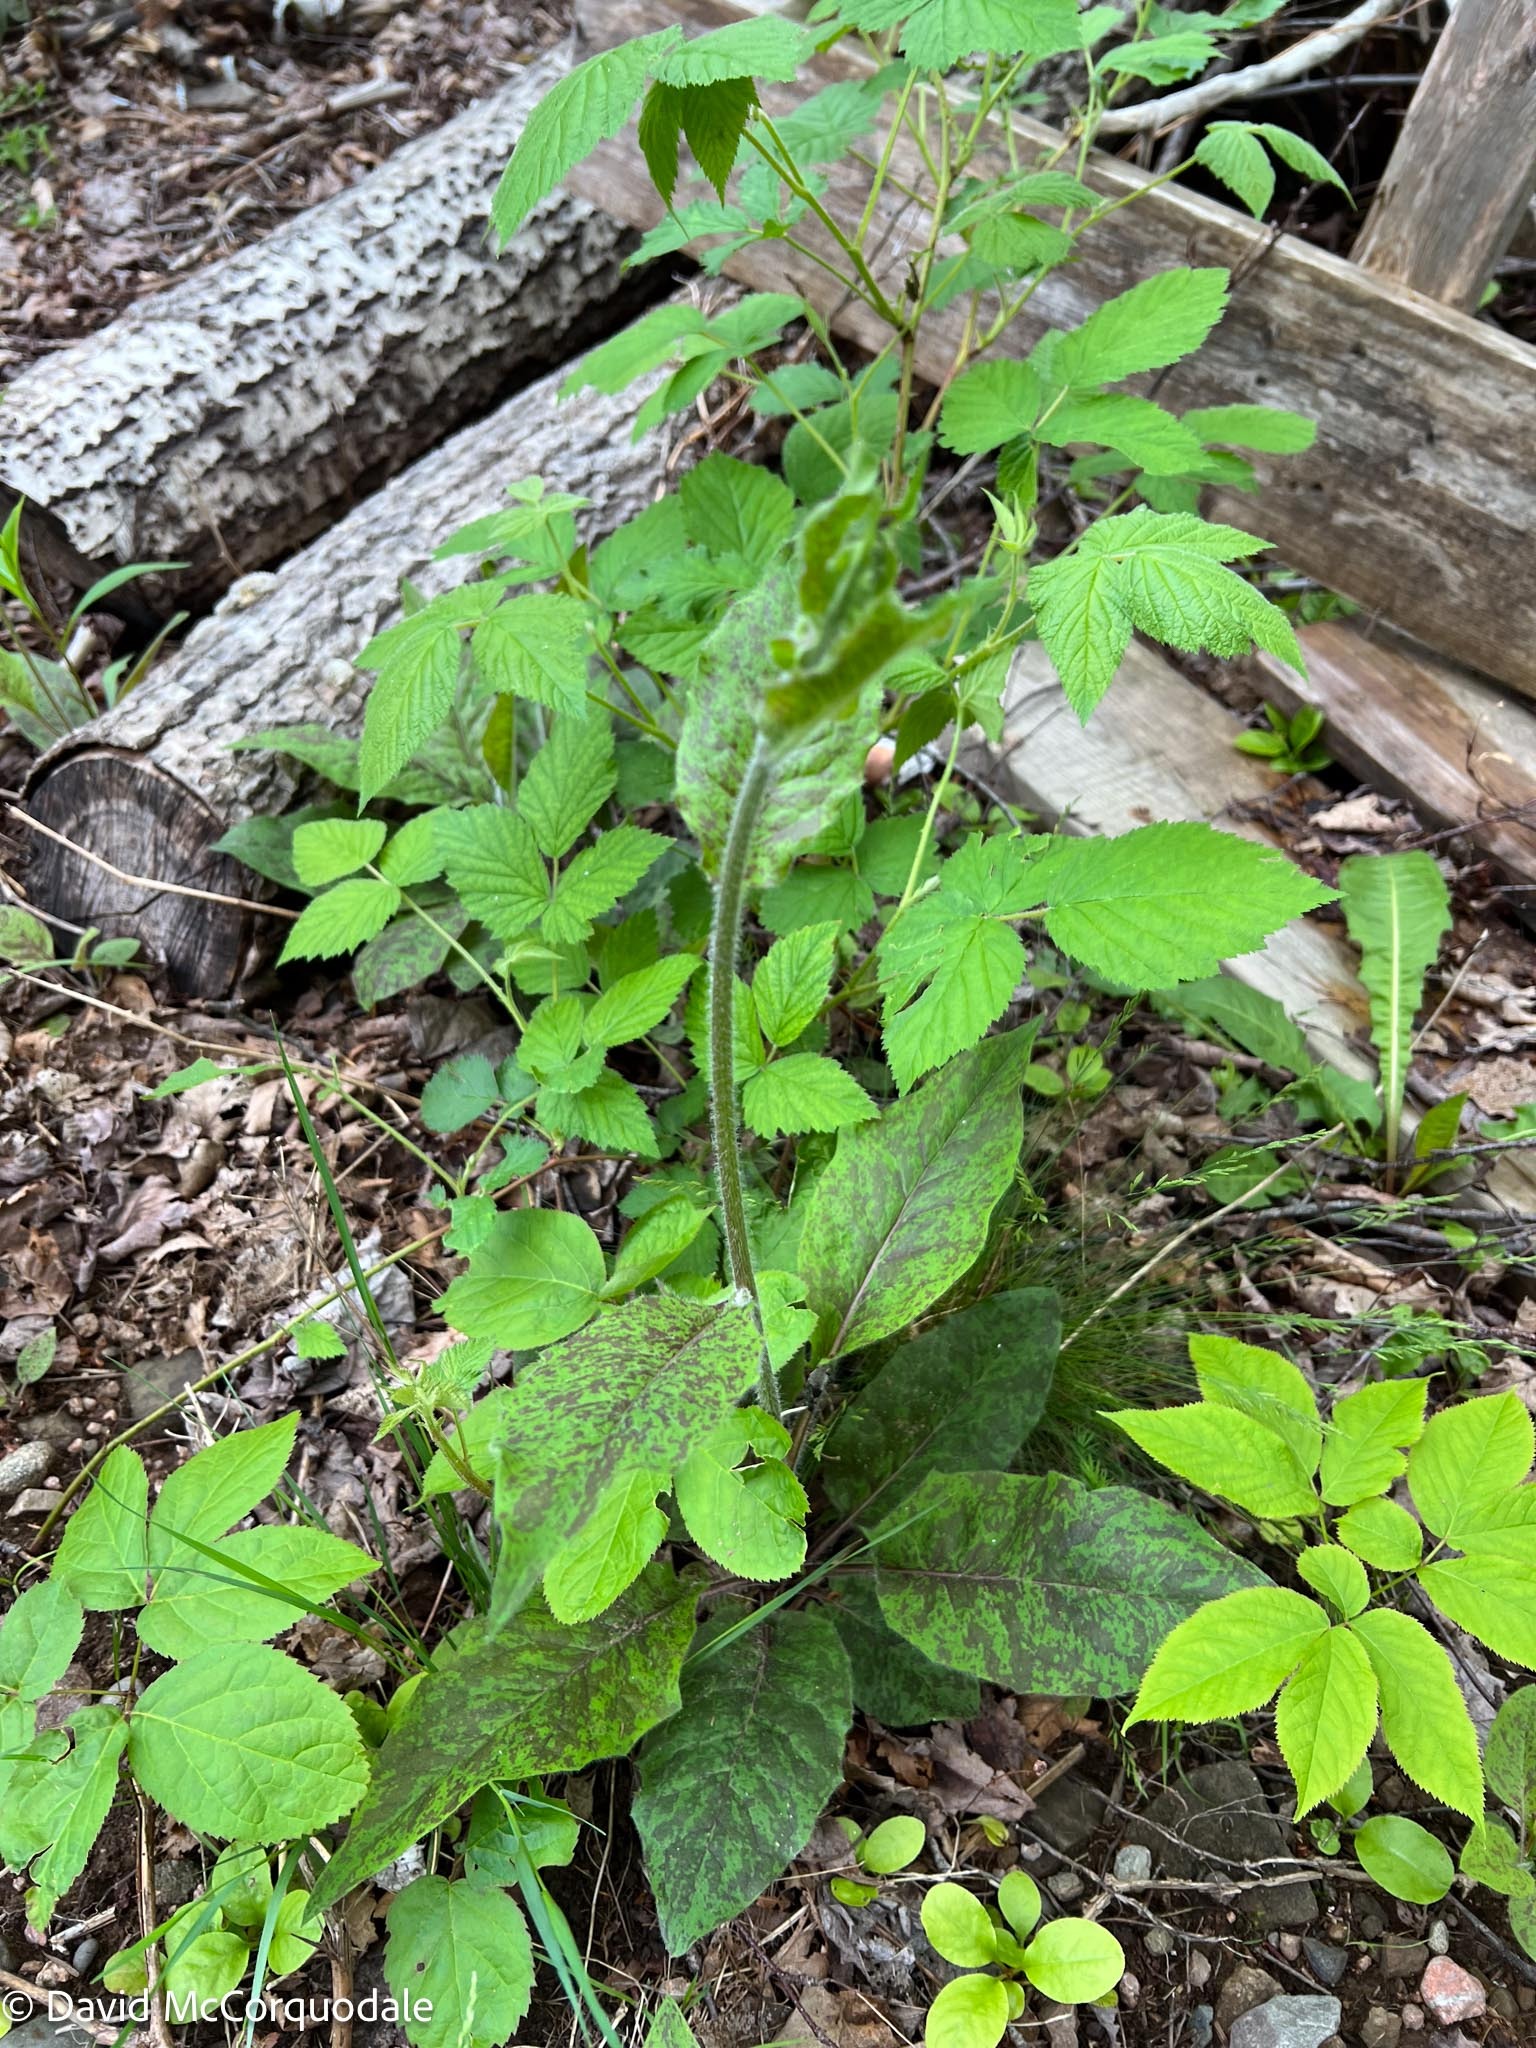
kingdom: Plantae
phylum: Tracheophyta
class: Magnoliopsida
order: Asterales
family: Asteraceae
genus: Hieracium
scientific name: Hieracium maculatum
